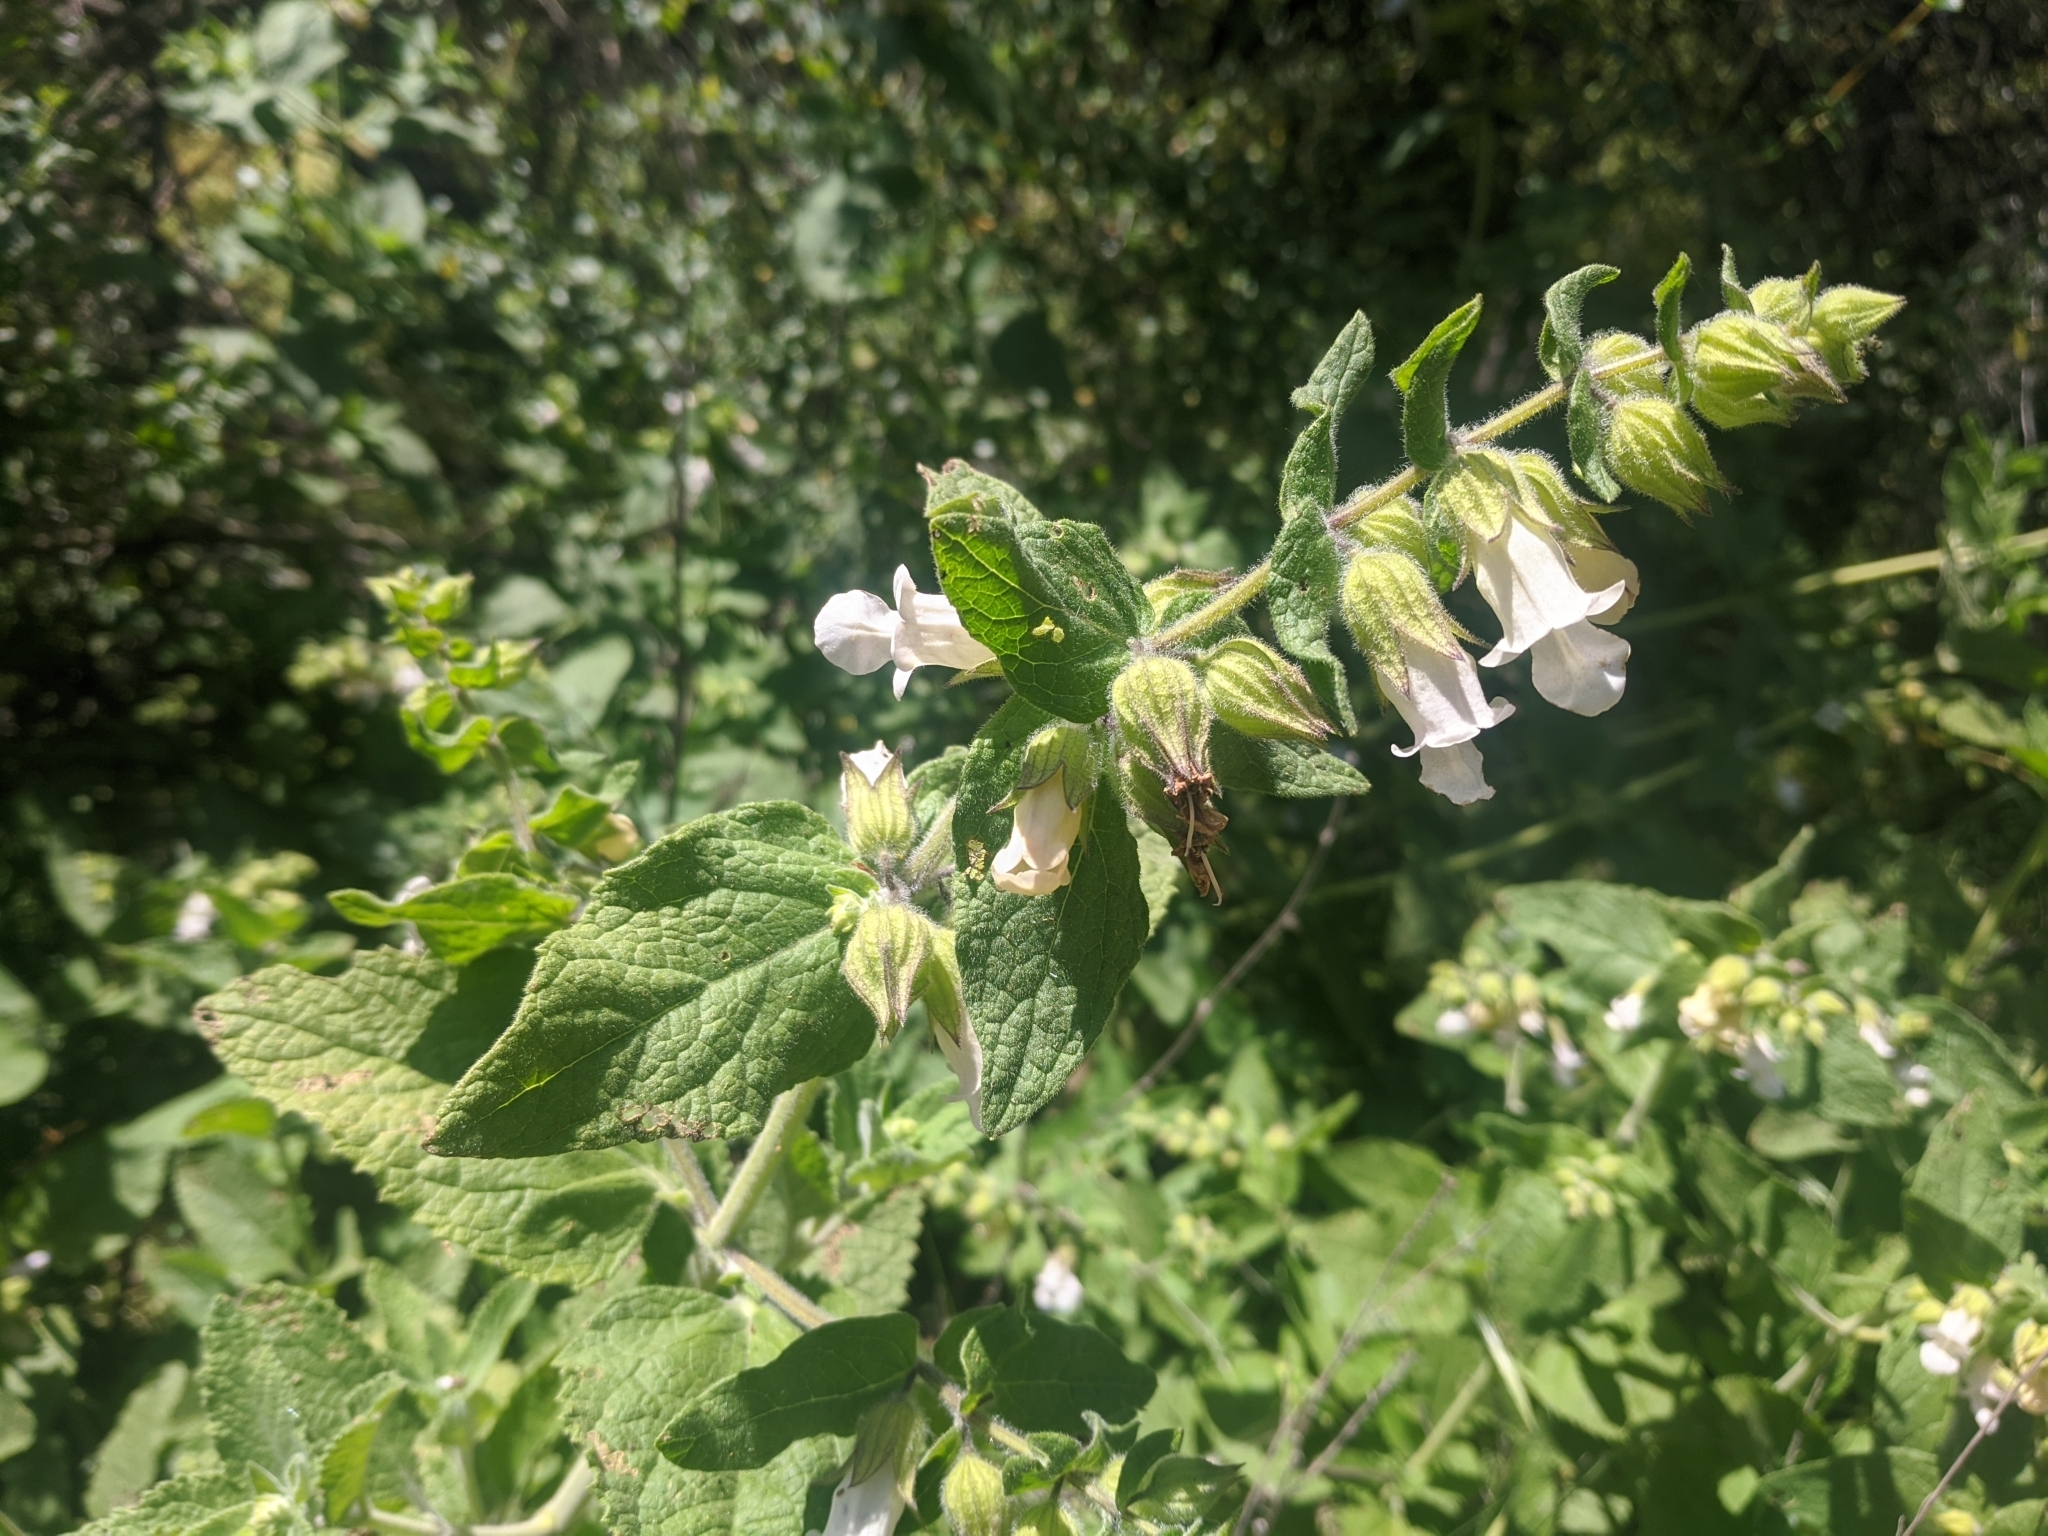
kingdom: Plantae
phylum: Tracheophyta
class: Magnoliopsida
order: Lamiales
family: Lamiaceae
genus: Lepechinia
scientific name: Lepechinia calycina
